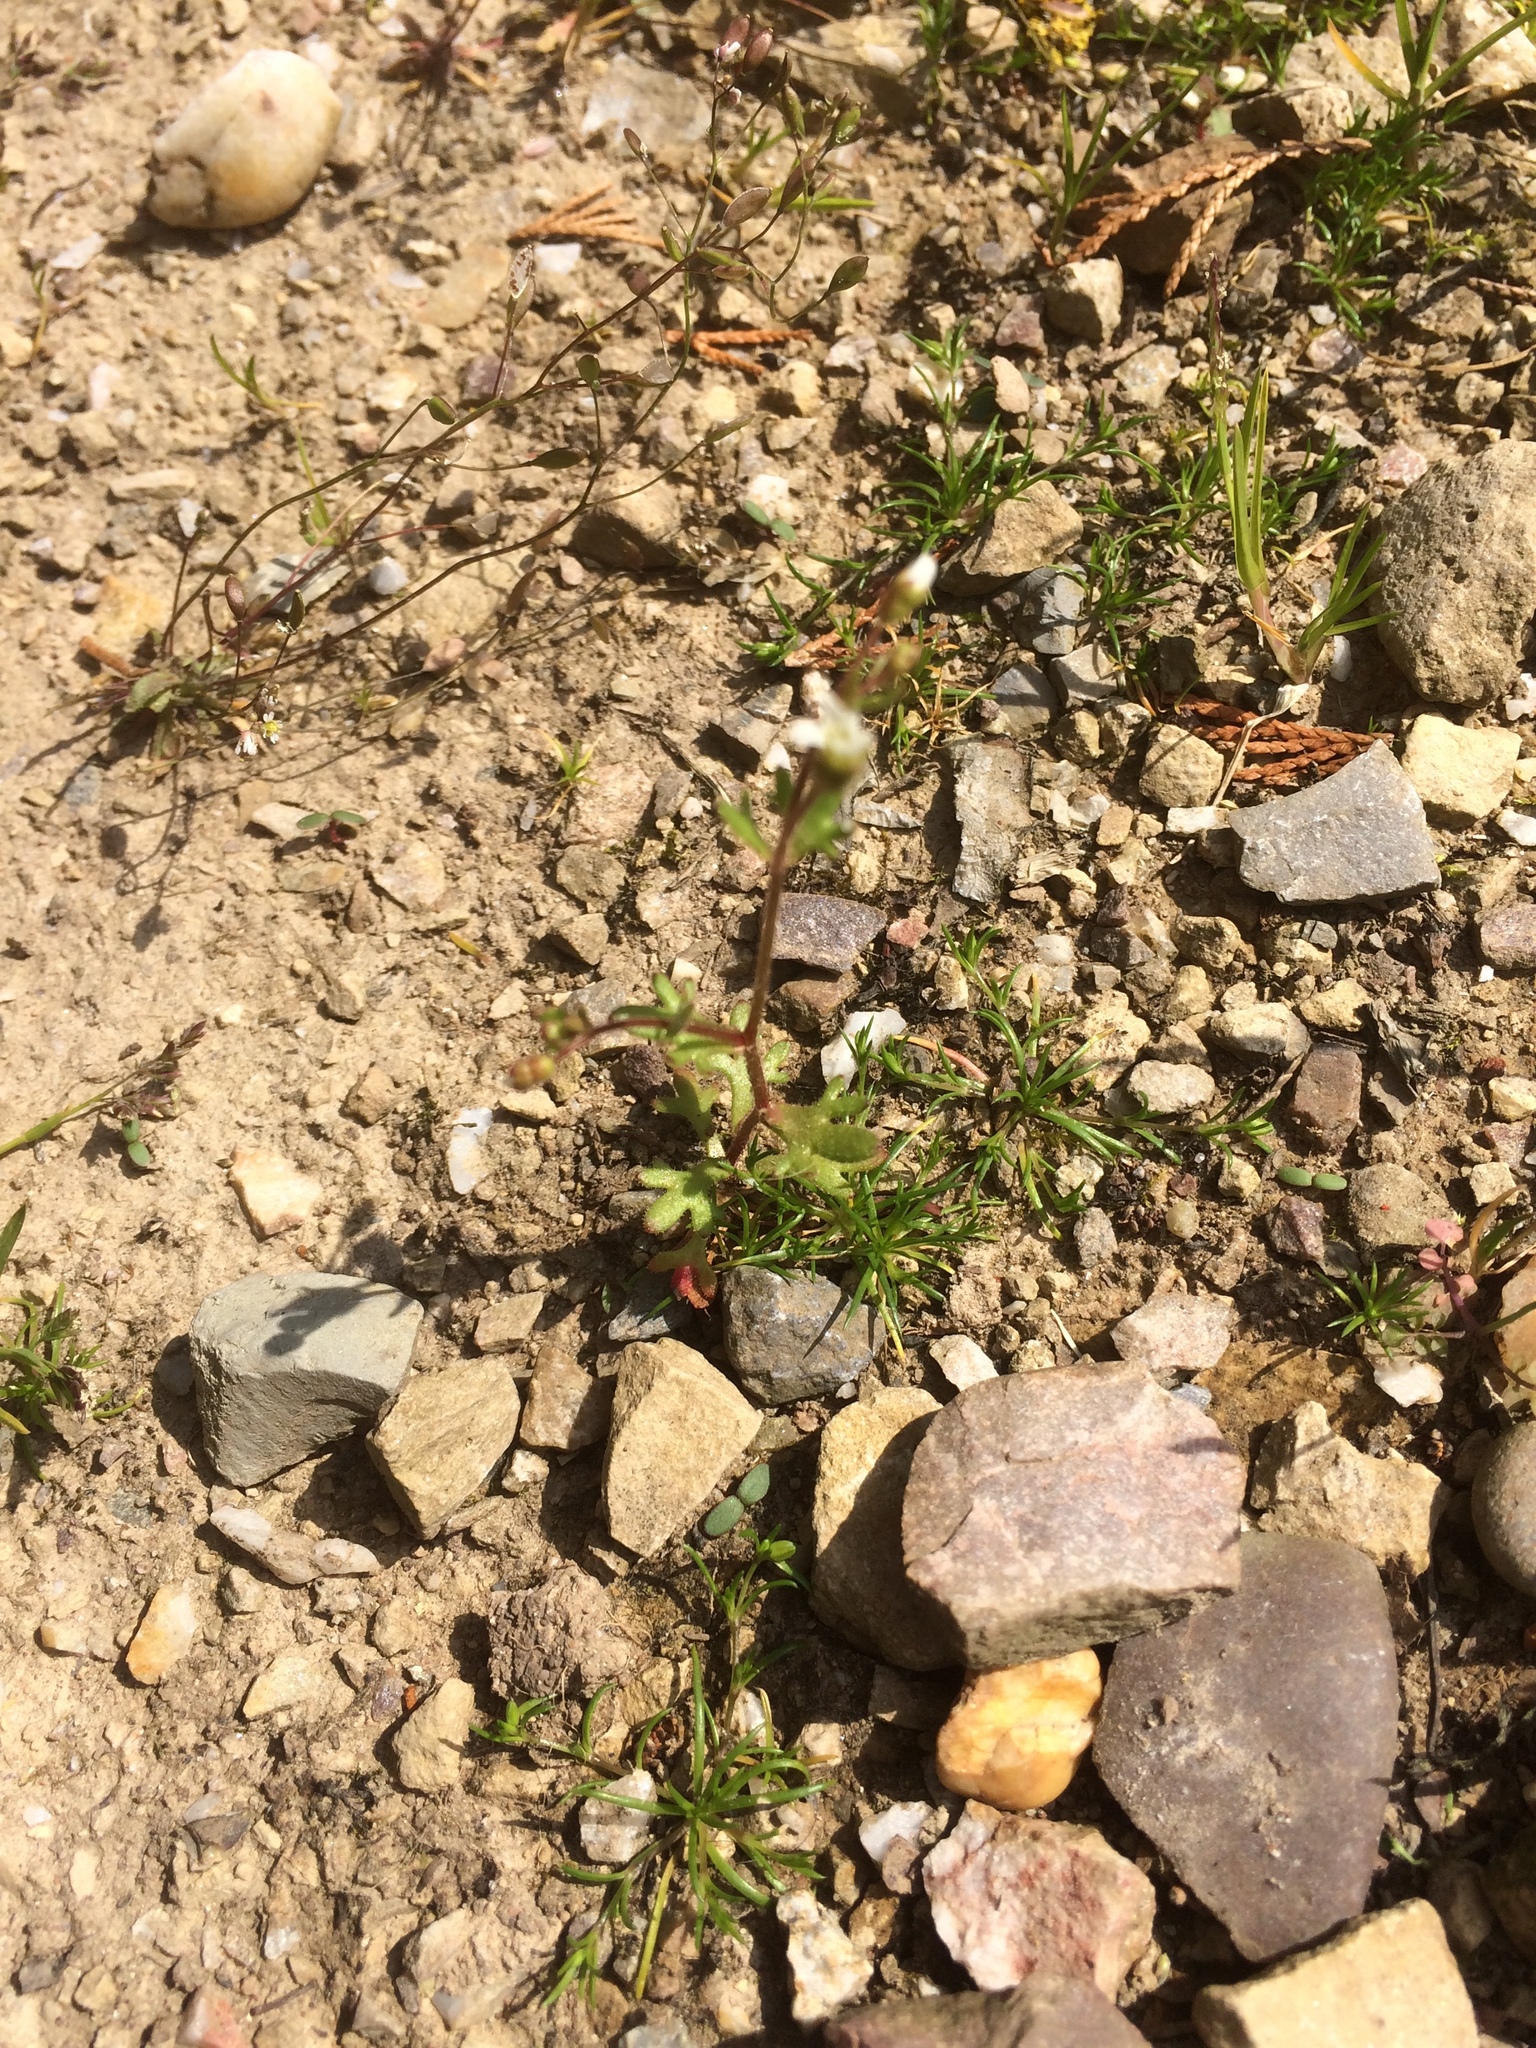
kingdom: Plantae
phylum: Tracheophyta
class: Magnoliopsida
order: Saxifragales
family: Saxifragaceae
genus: Saxifraga
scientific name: Saxifraga tridactylites
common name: Rue-leaved saxifrage
